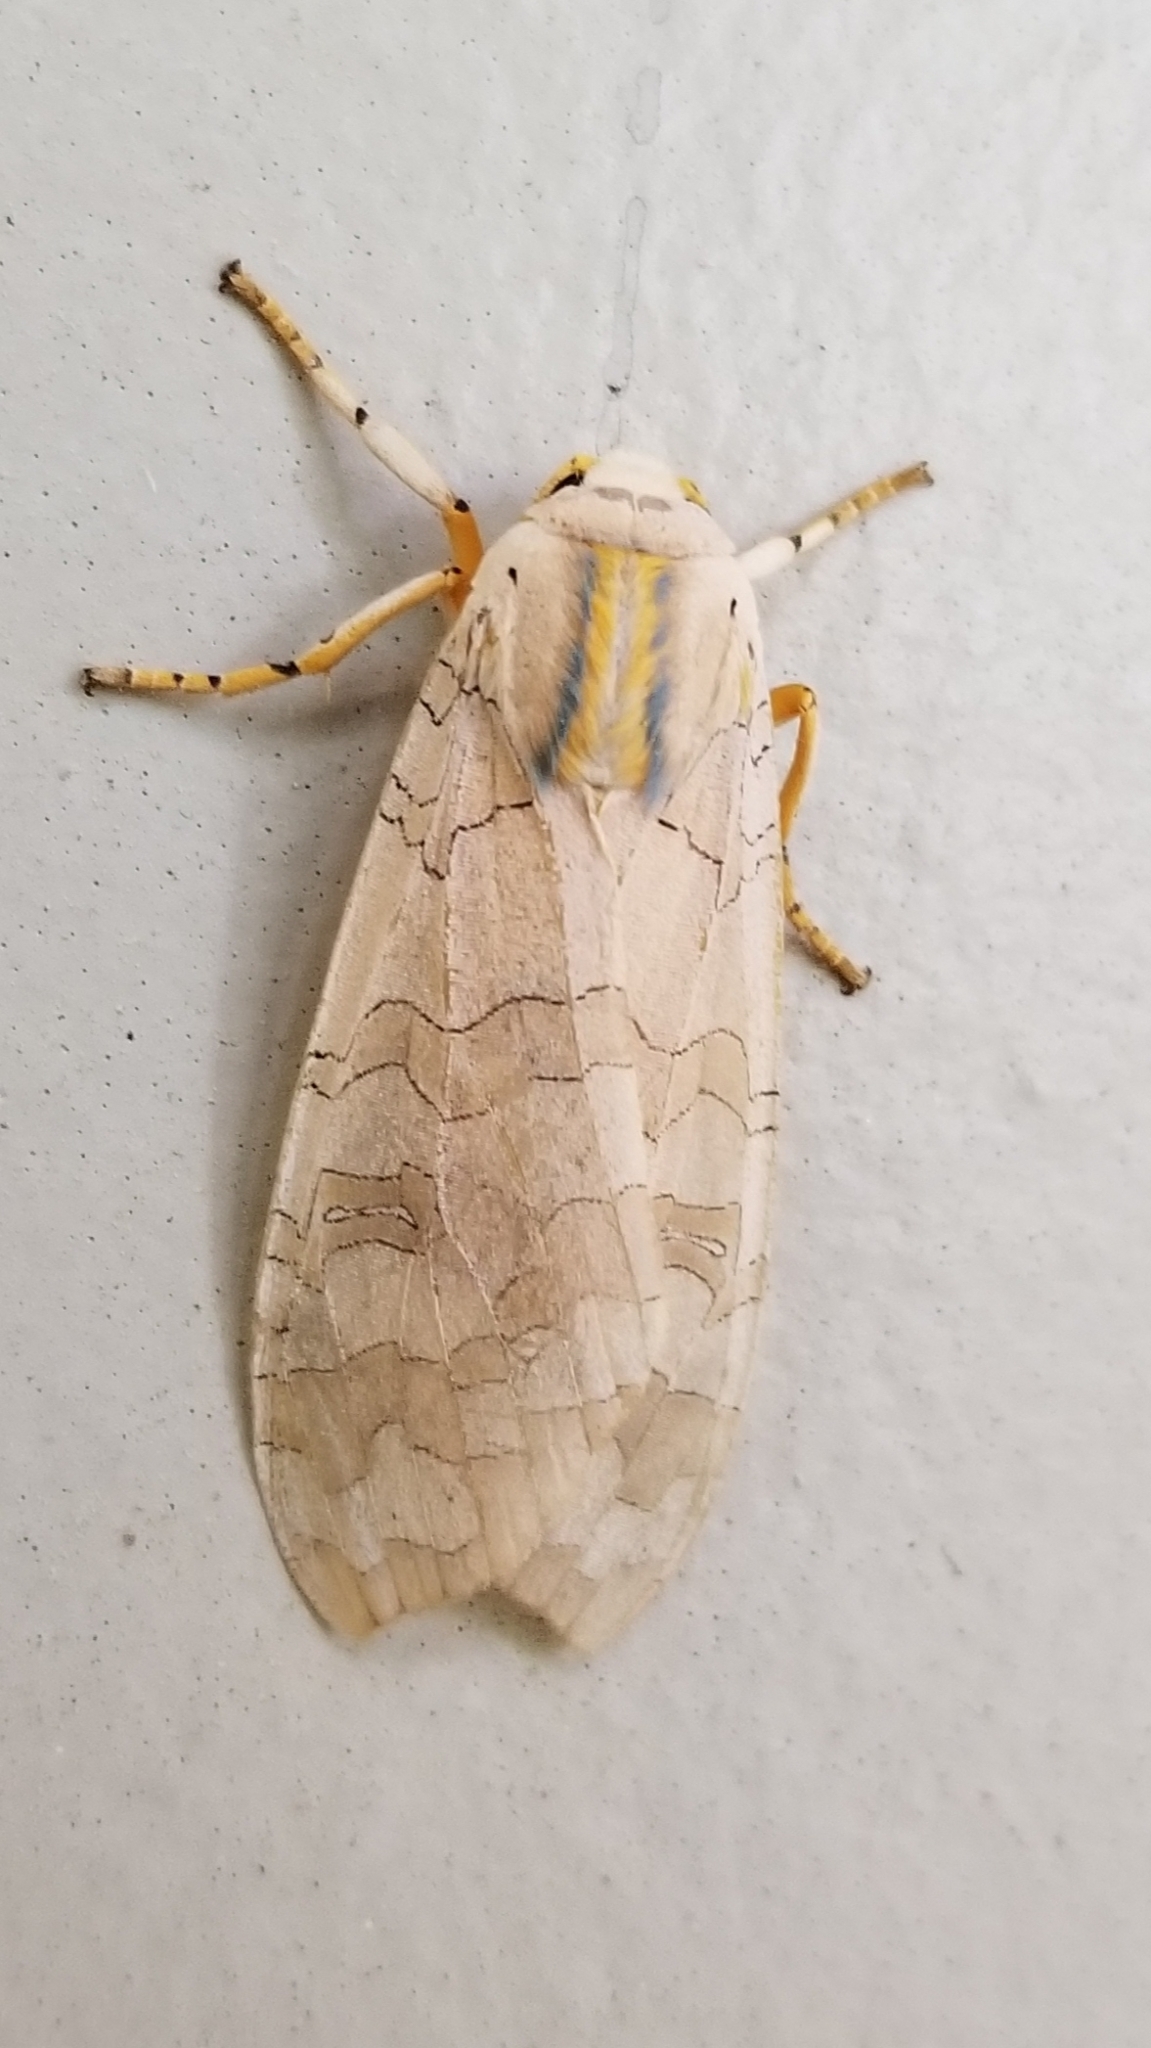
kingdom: Animalia
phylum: Arthropoda
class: Insecta
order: Lepidoptera
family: Erebidae
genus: Halysidota
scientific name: Halysidota
